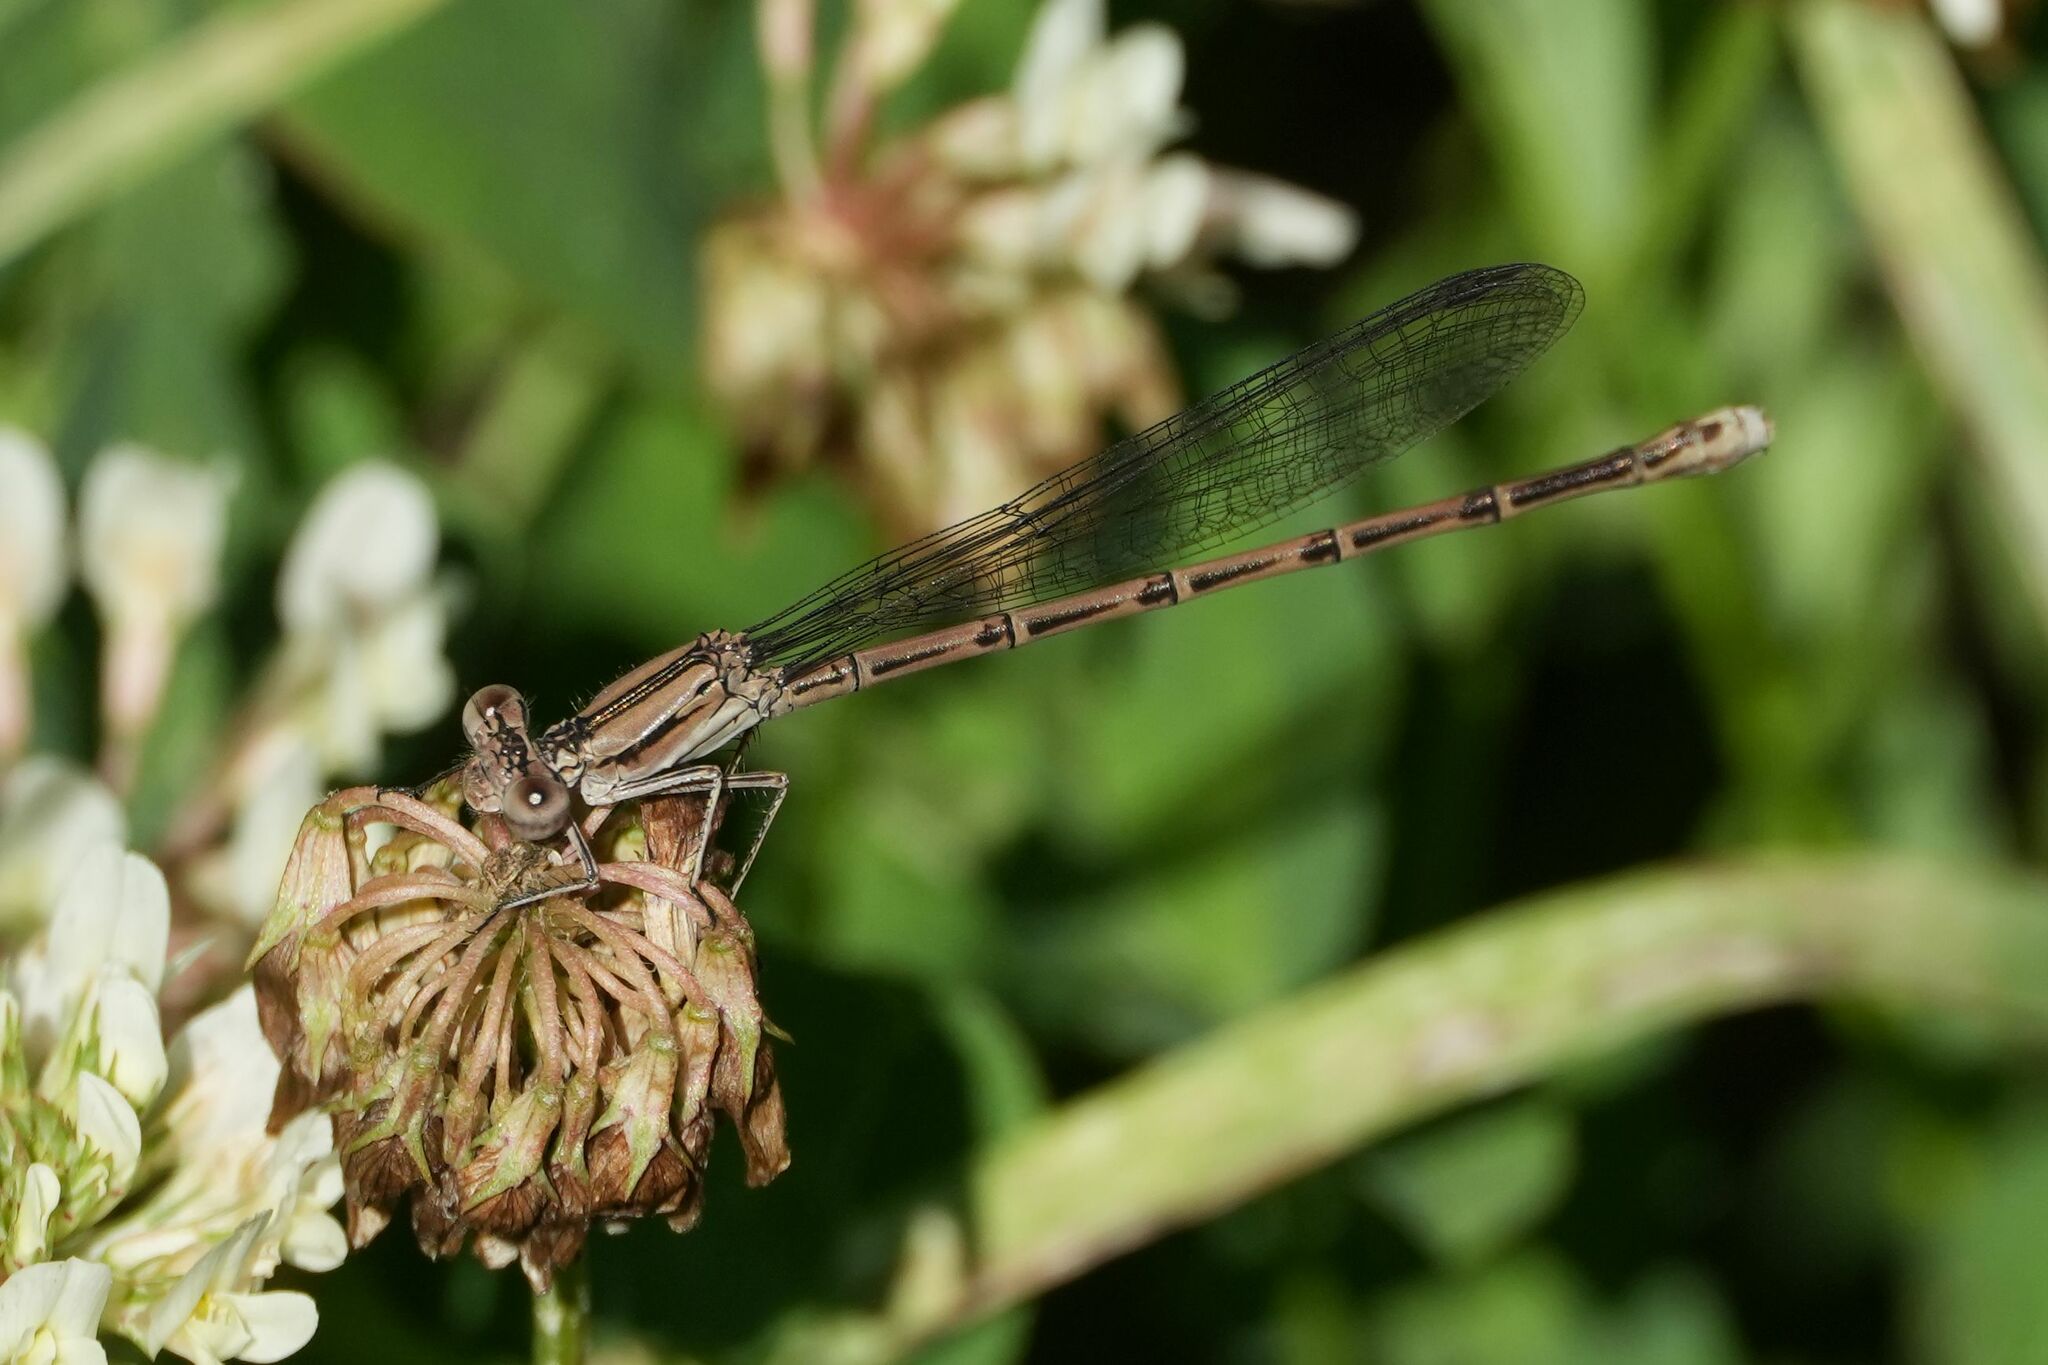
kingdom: Animalia
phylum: Arthropoda
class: Insecta
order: Odonata
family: Coenagrionidae
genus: Argia
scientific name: Argia fumipennis
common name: Variable dancer
